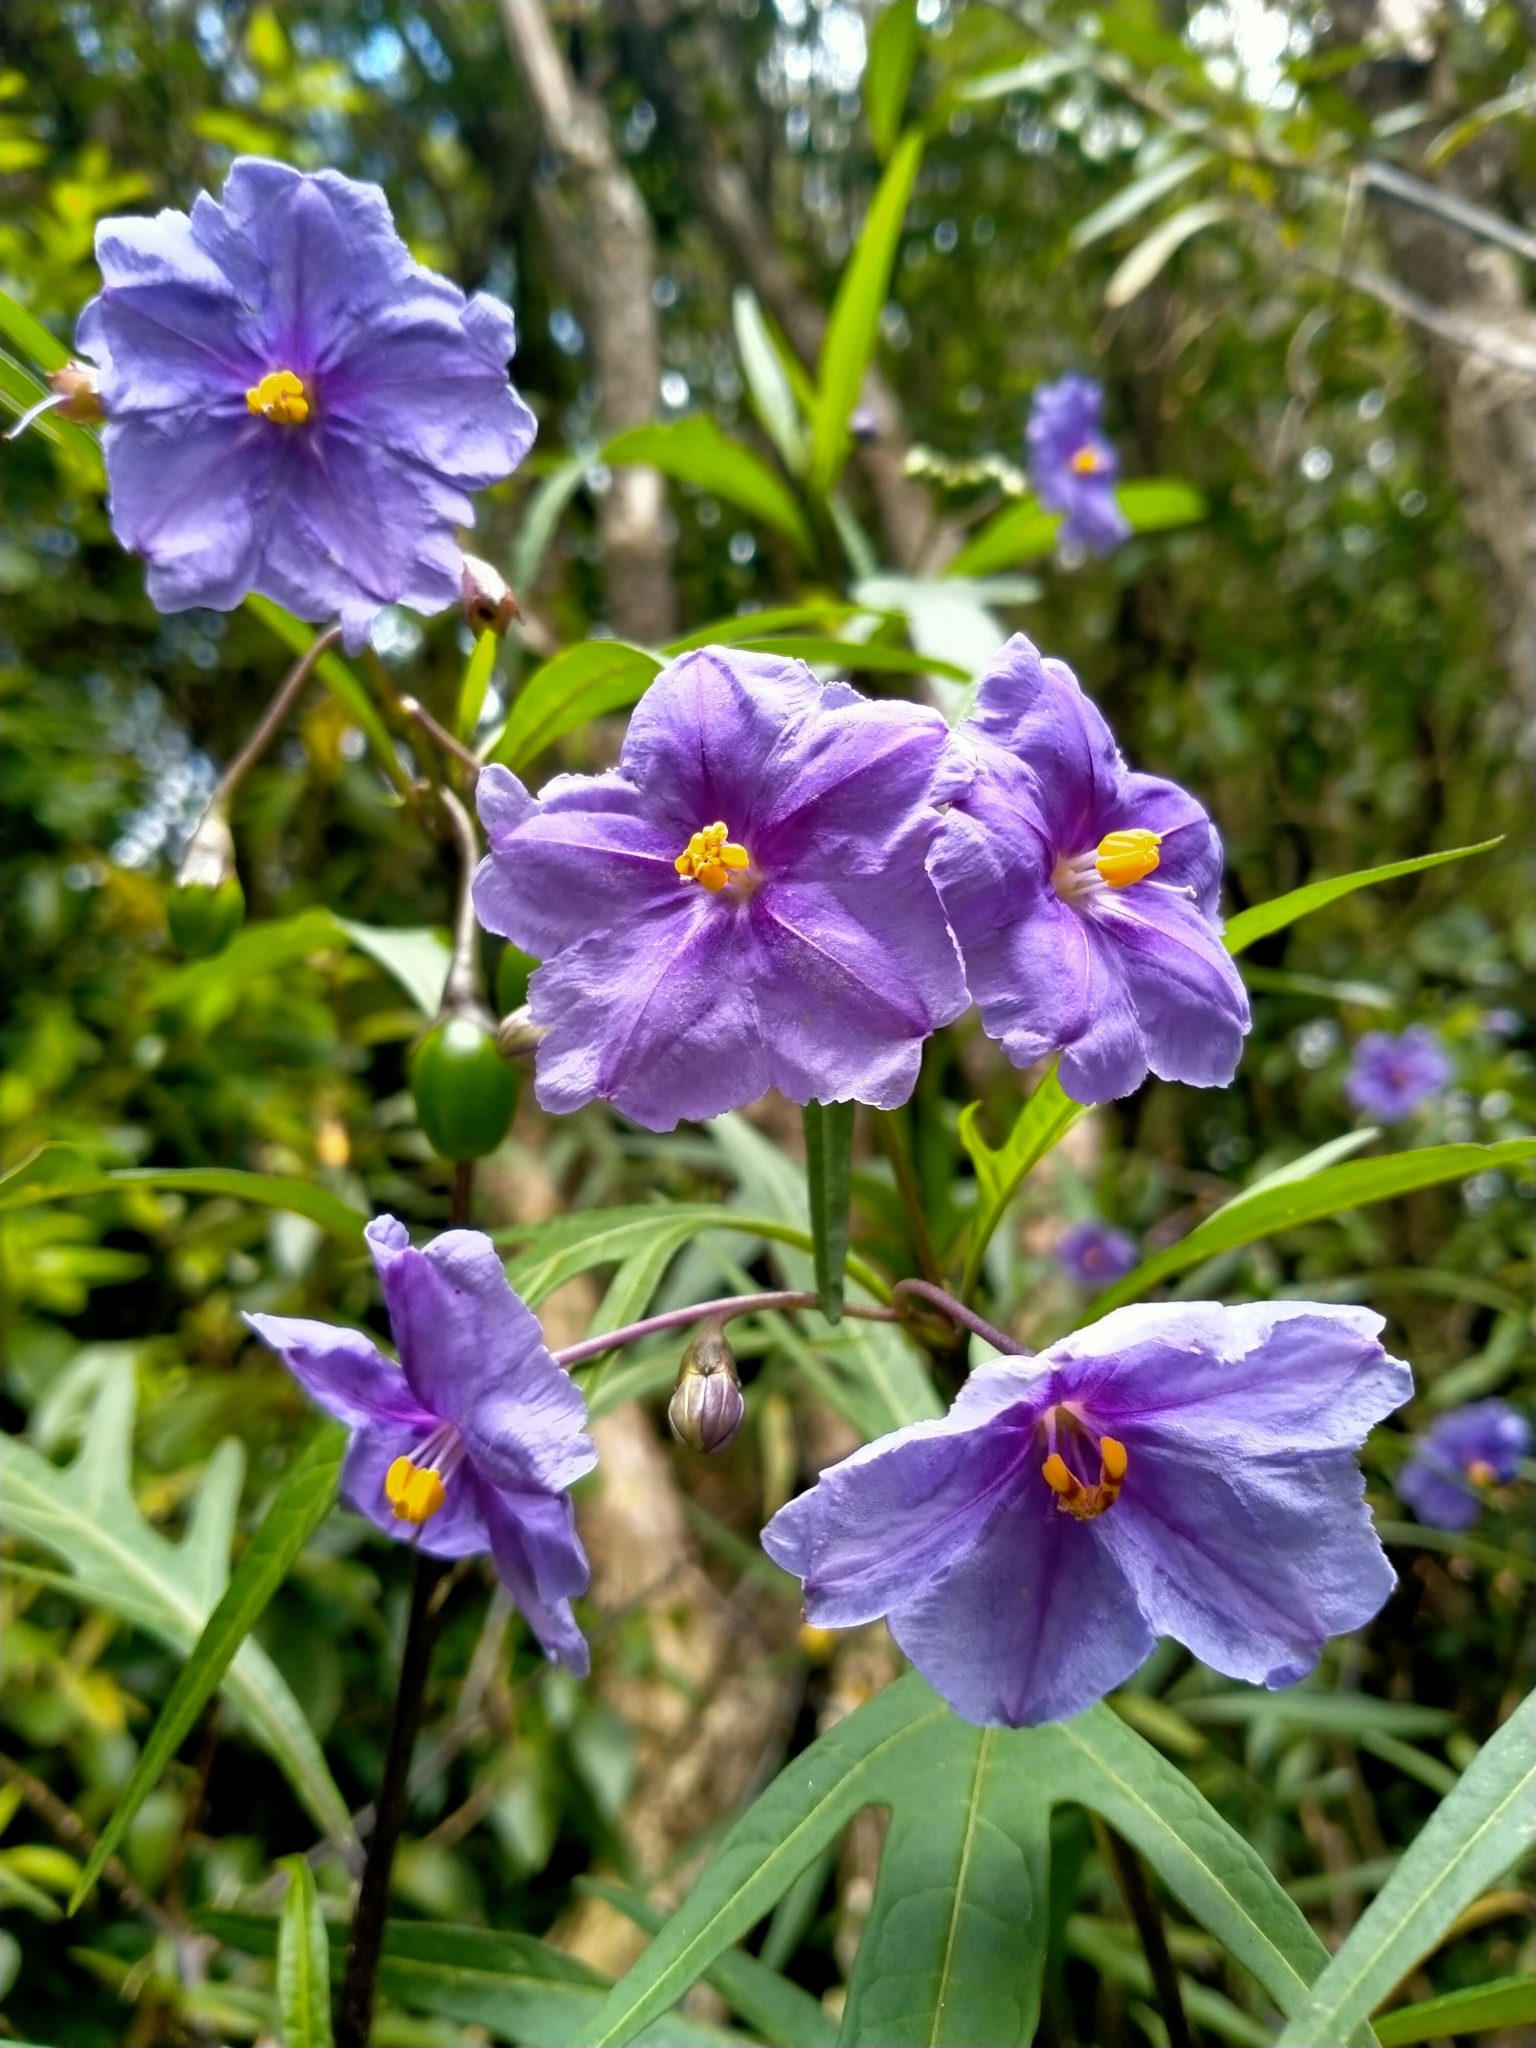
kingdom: Plantae
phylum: Tracheophyta
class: Magnoliopsida
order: Solanales
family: Solanaceae
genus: Solanum
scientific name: Solanum laciniatum
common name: Kangaroo-apple
